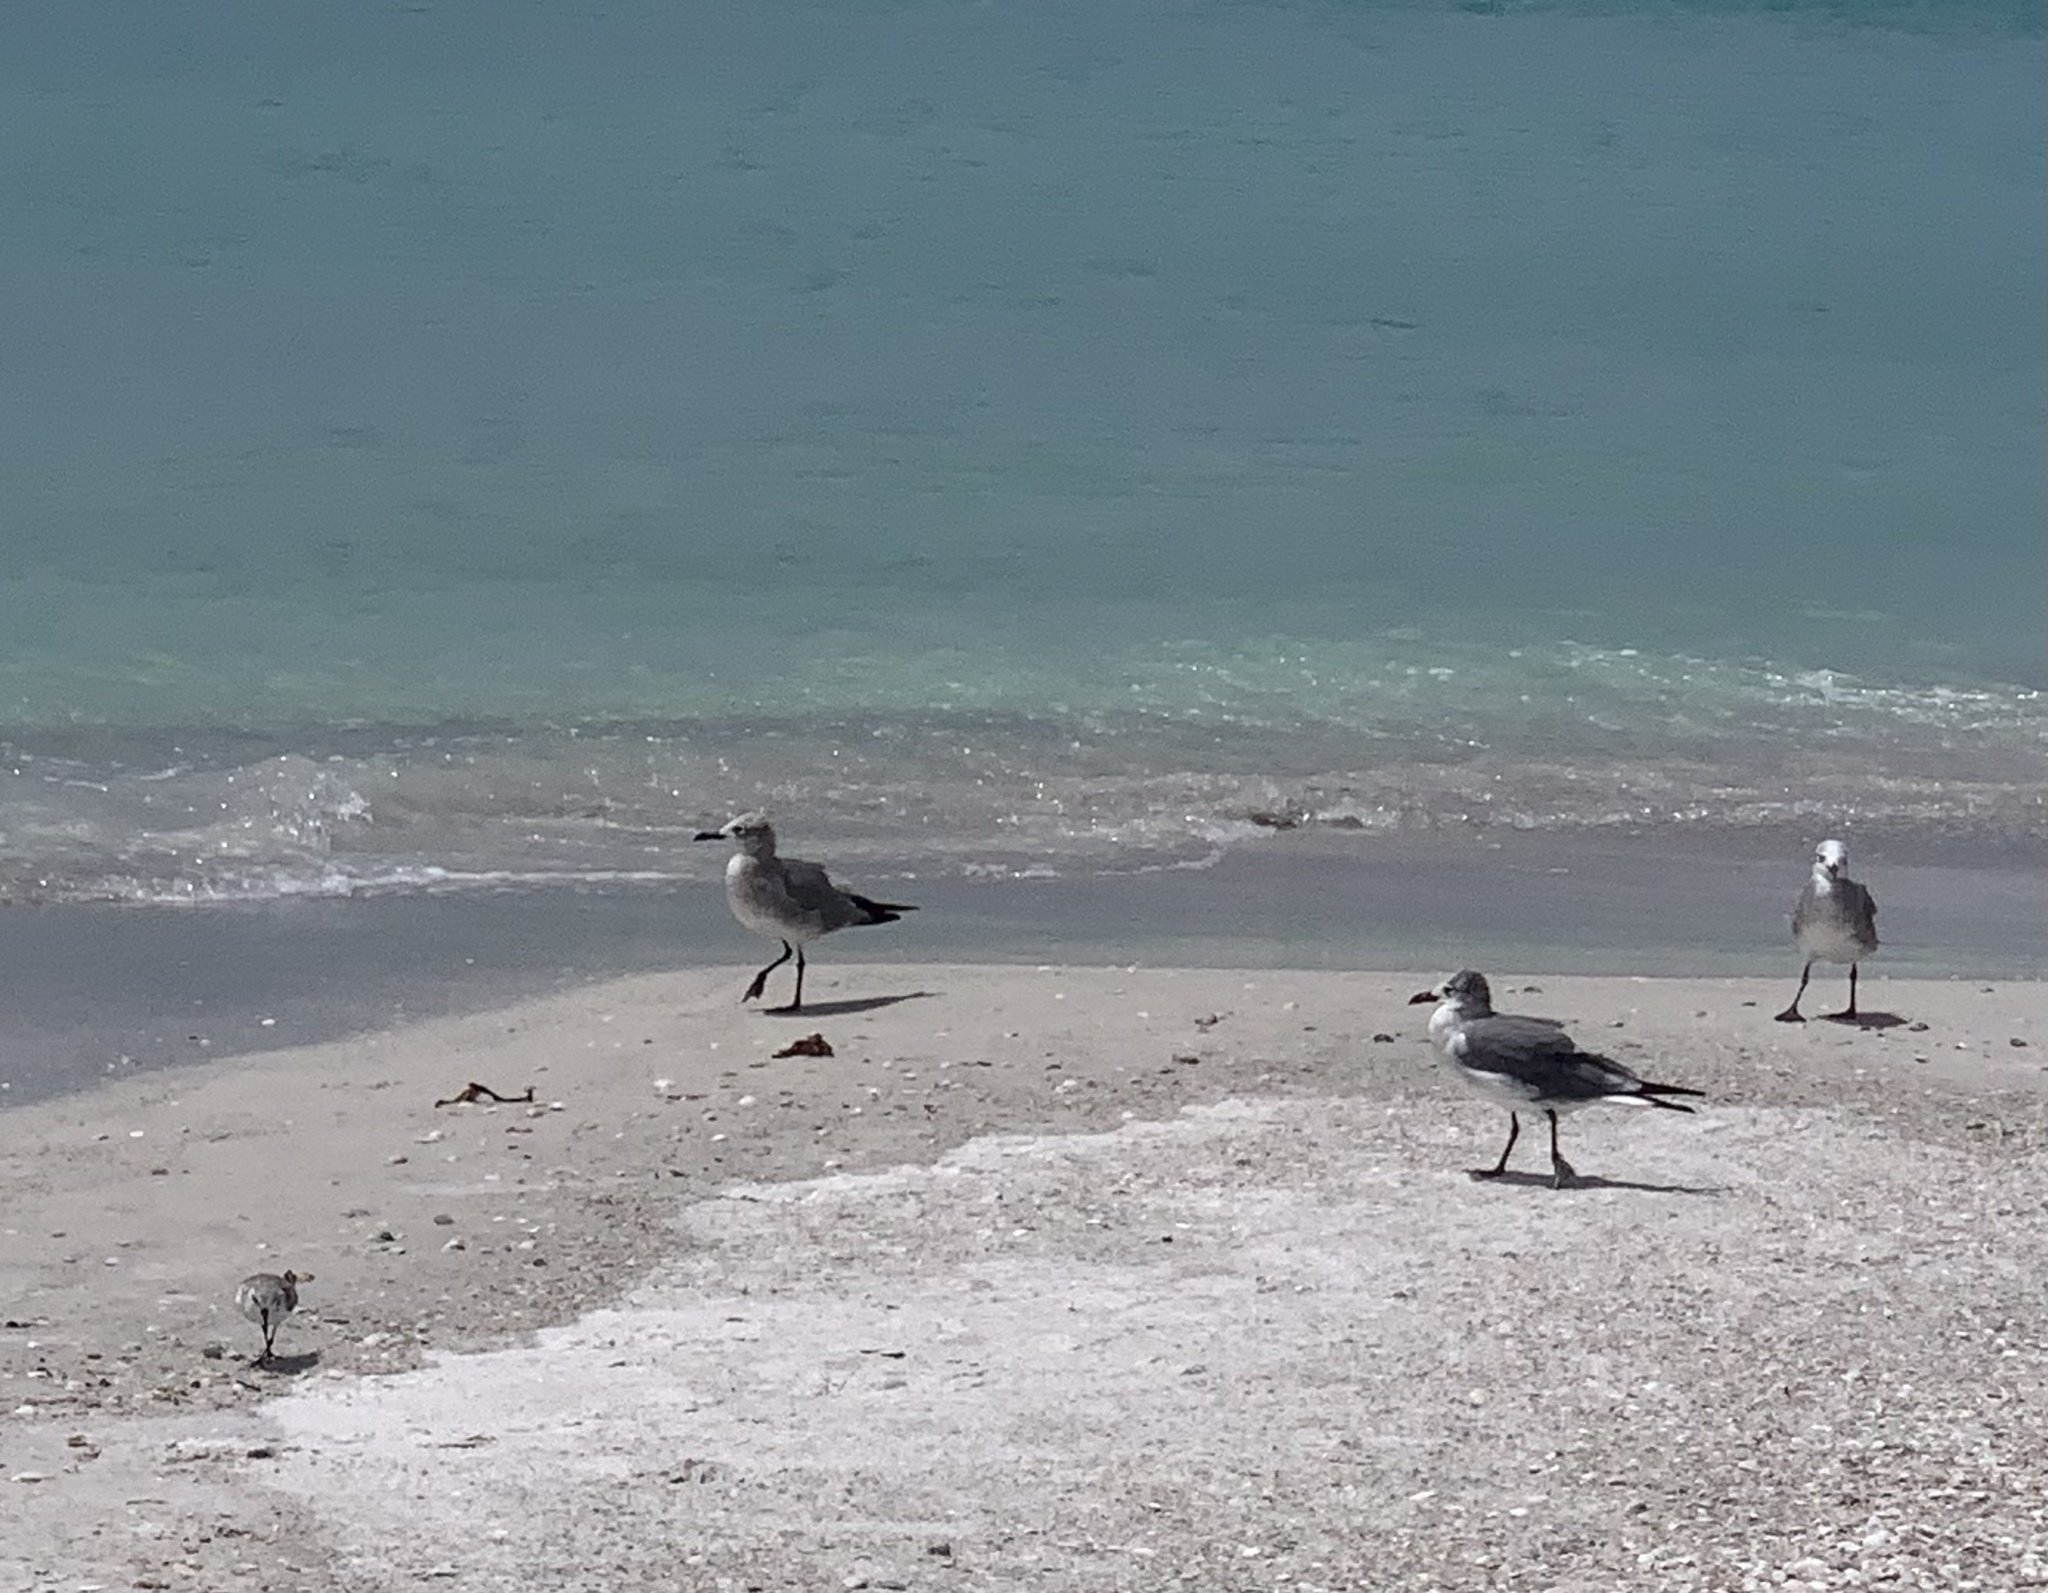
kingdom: Animalia
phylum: Chordata
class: Aves
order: Charadriiformes
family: Laridae
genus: Leucophaeus
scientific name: Leucophaeus atricilla
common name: Laughing gull
